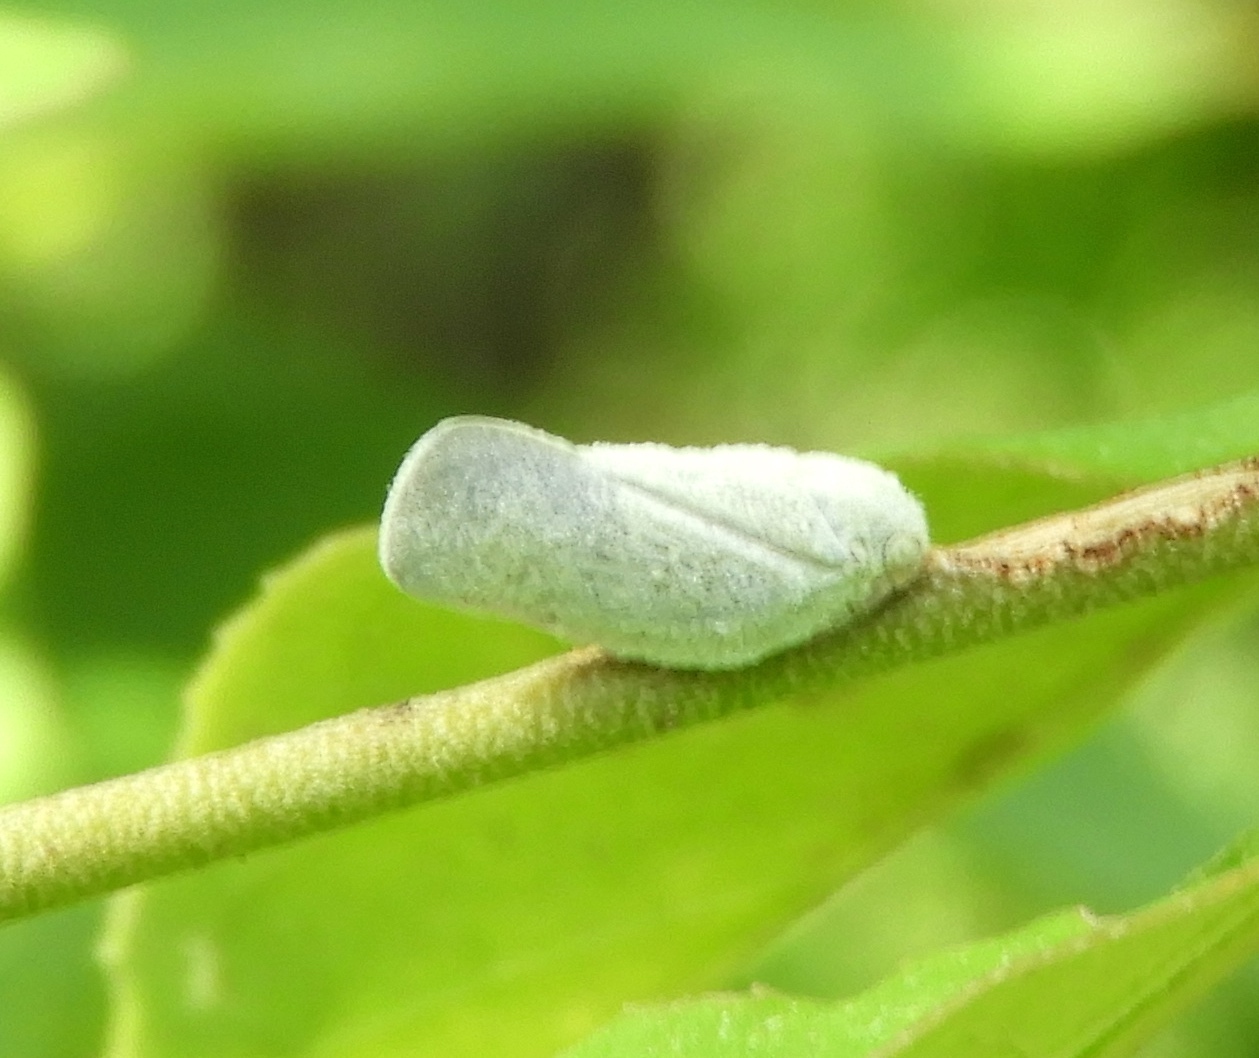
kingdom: Animalia
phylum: Arthropoda
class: Insecta
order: Hemiptera
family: Flatidae
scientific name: Flatidae
